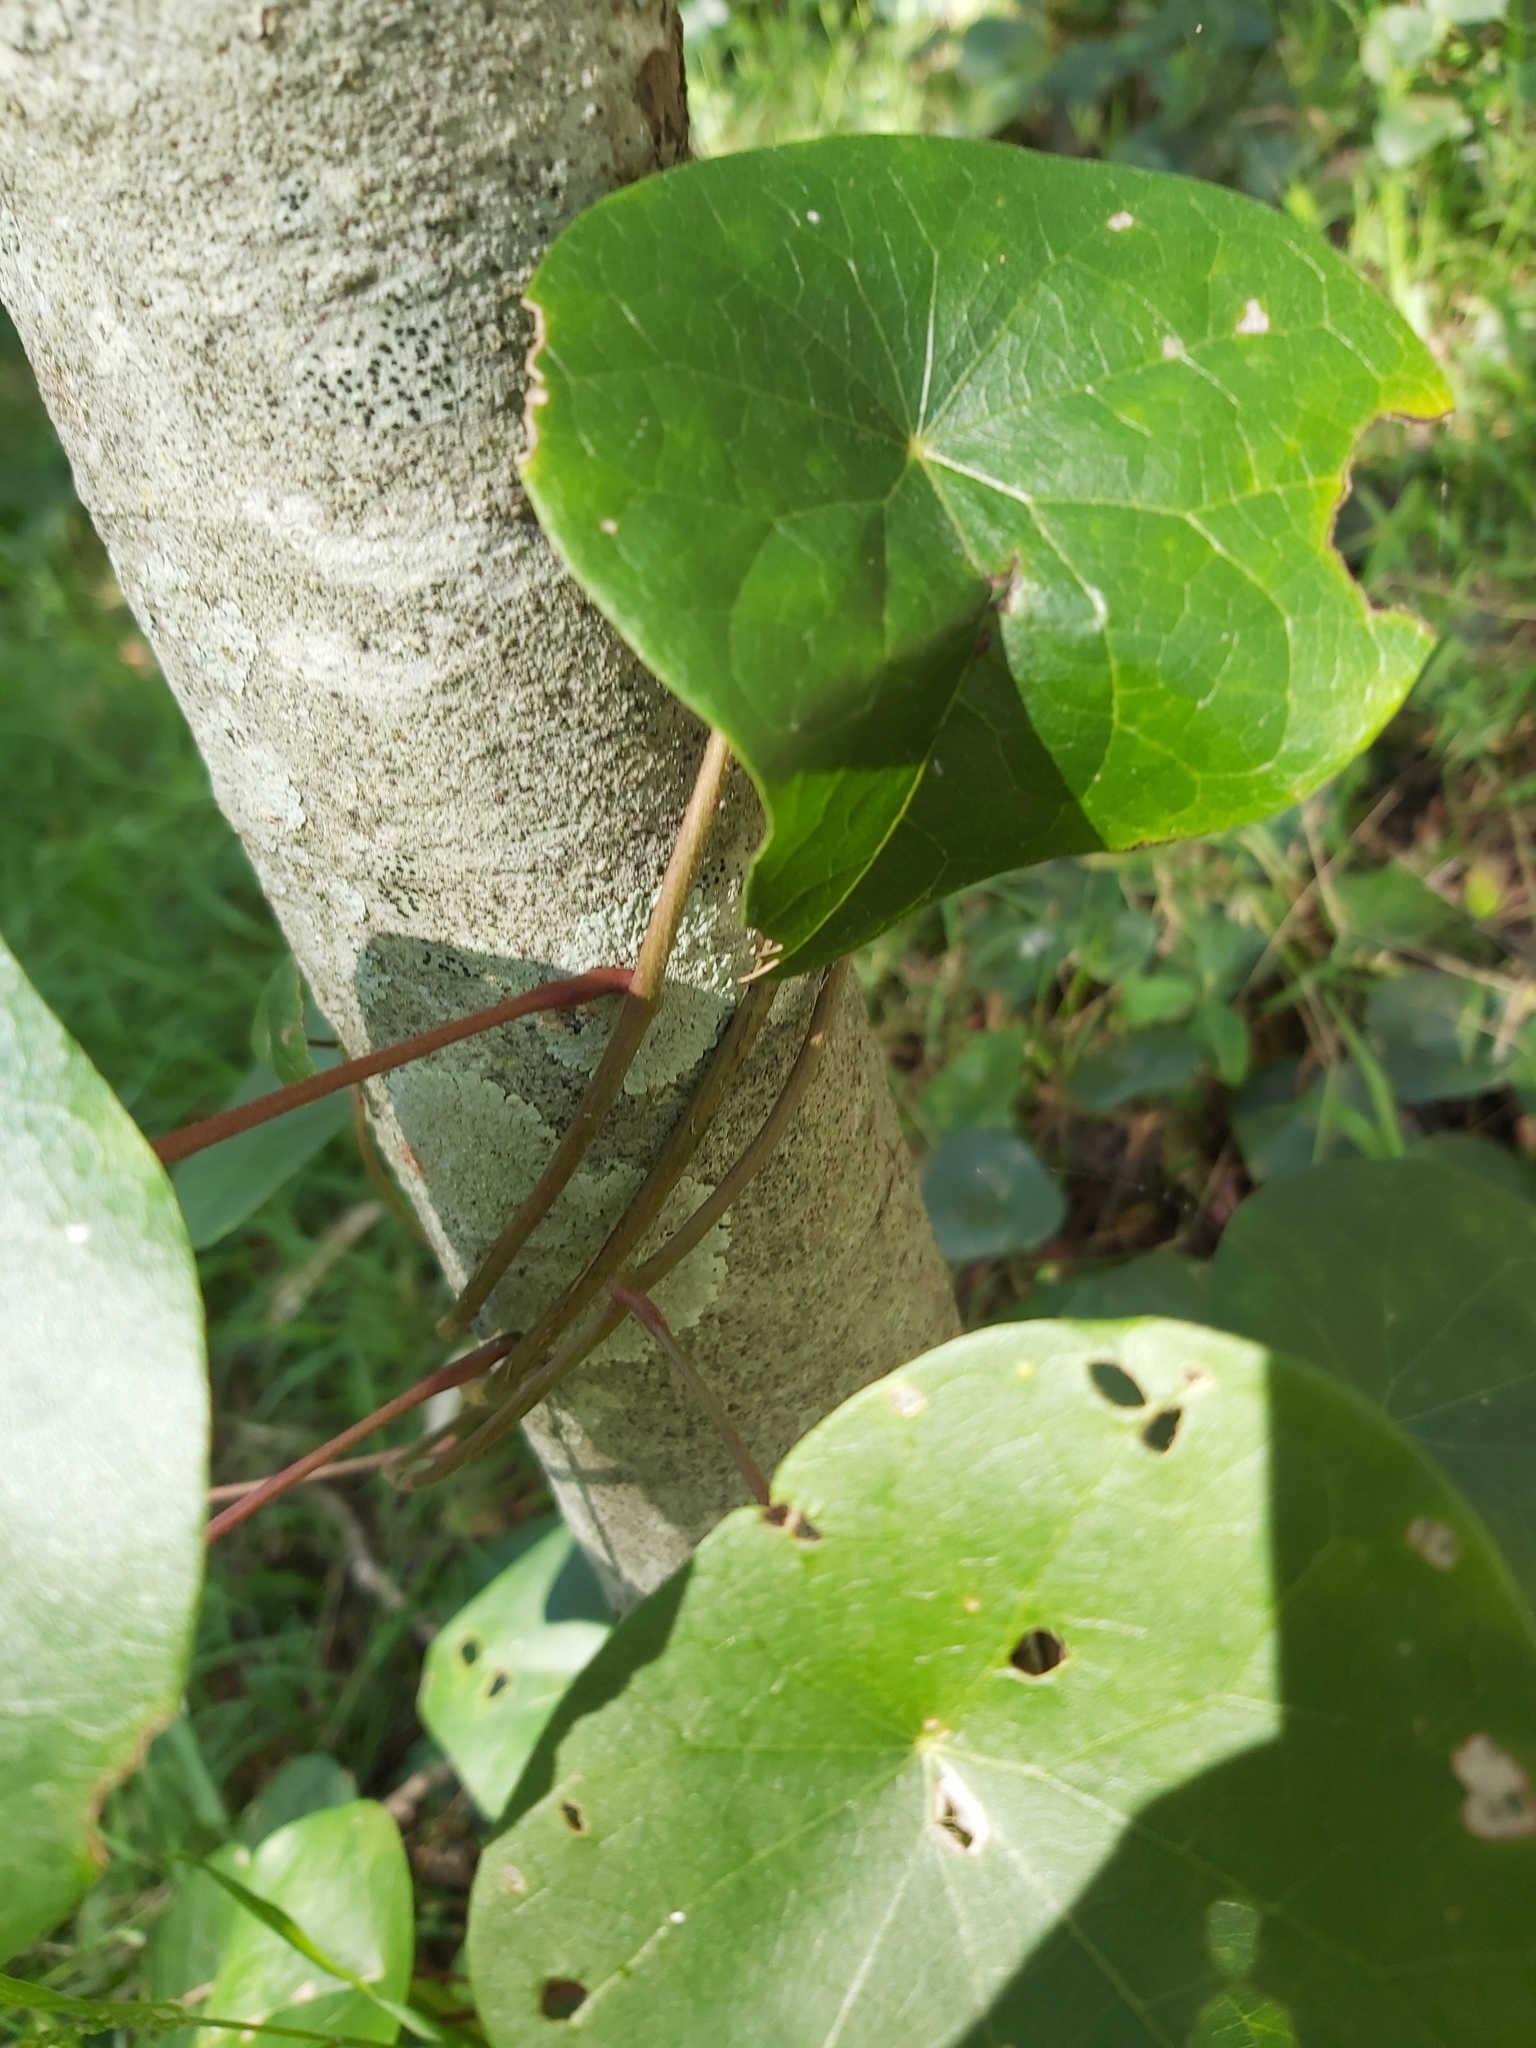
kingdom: Plantae
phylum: Tracheophyta
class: Magnoliopsida
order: Ranunculales
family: Menispermaceae
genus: Stephania
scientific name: Stephania japonica
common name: Snake vine
